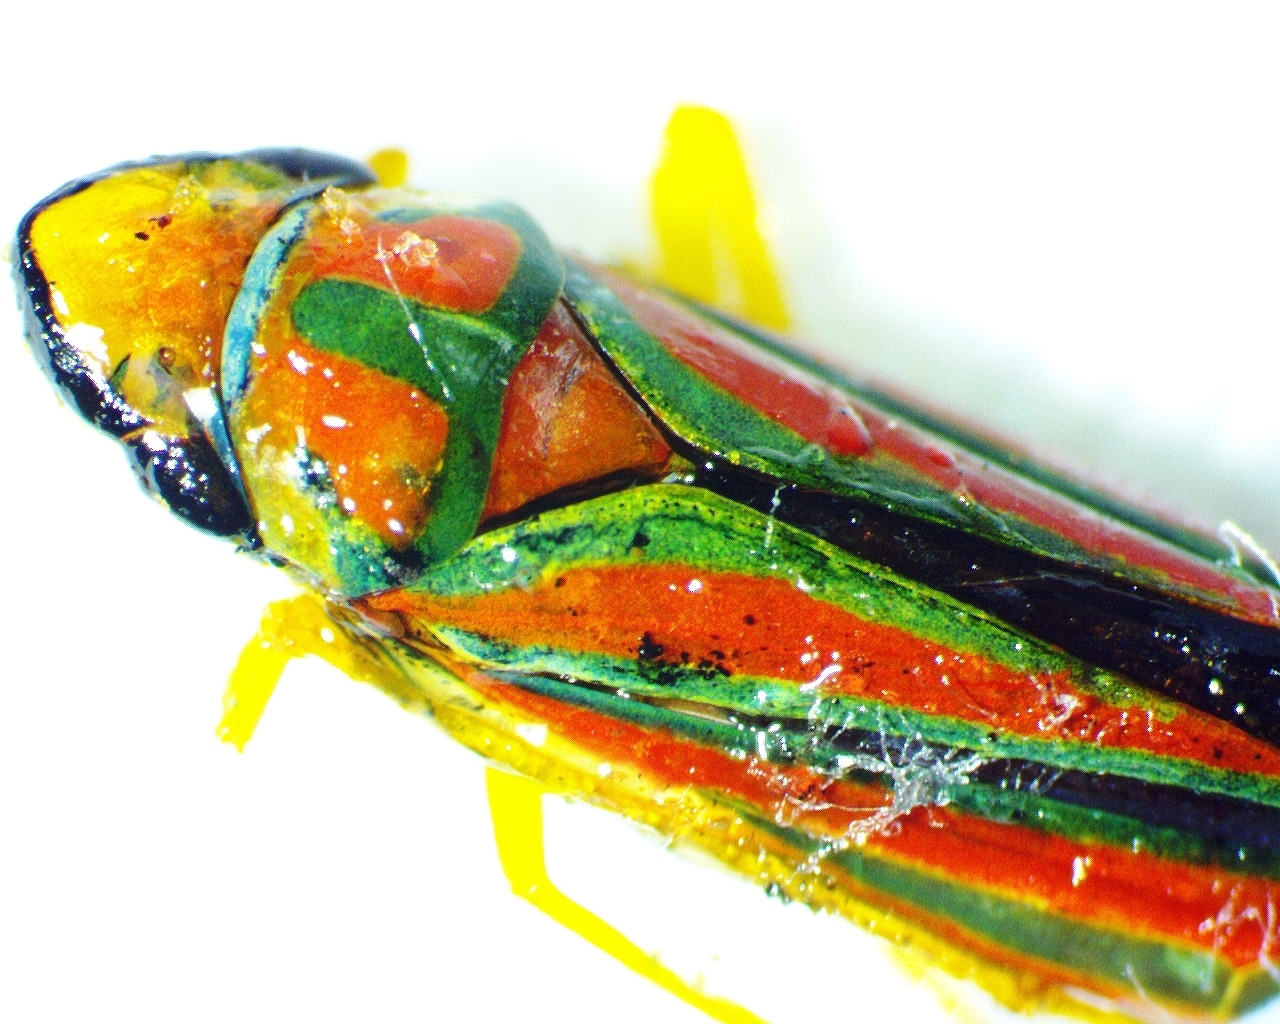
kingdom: Animalia
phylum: Arthropoda
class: Insecta
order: Hemiptera
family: Cicadellidae
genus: Graphocephala
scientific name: Graphocephala coccinea
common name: Candy-striped leafhopper
